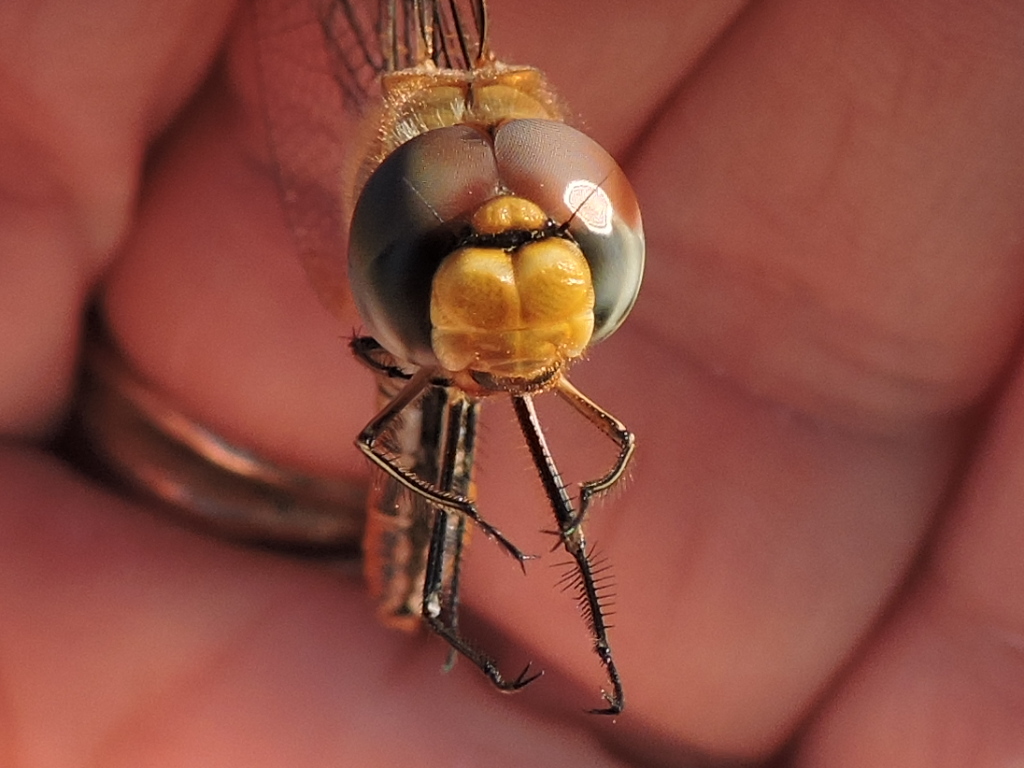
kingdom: Animalia
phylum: Arthropoda
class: Insecta
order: Odonata
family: Libellulidae
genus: Pantala
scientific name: Pantala flavescens
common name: Wandering glider
